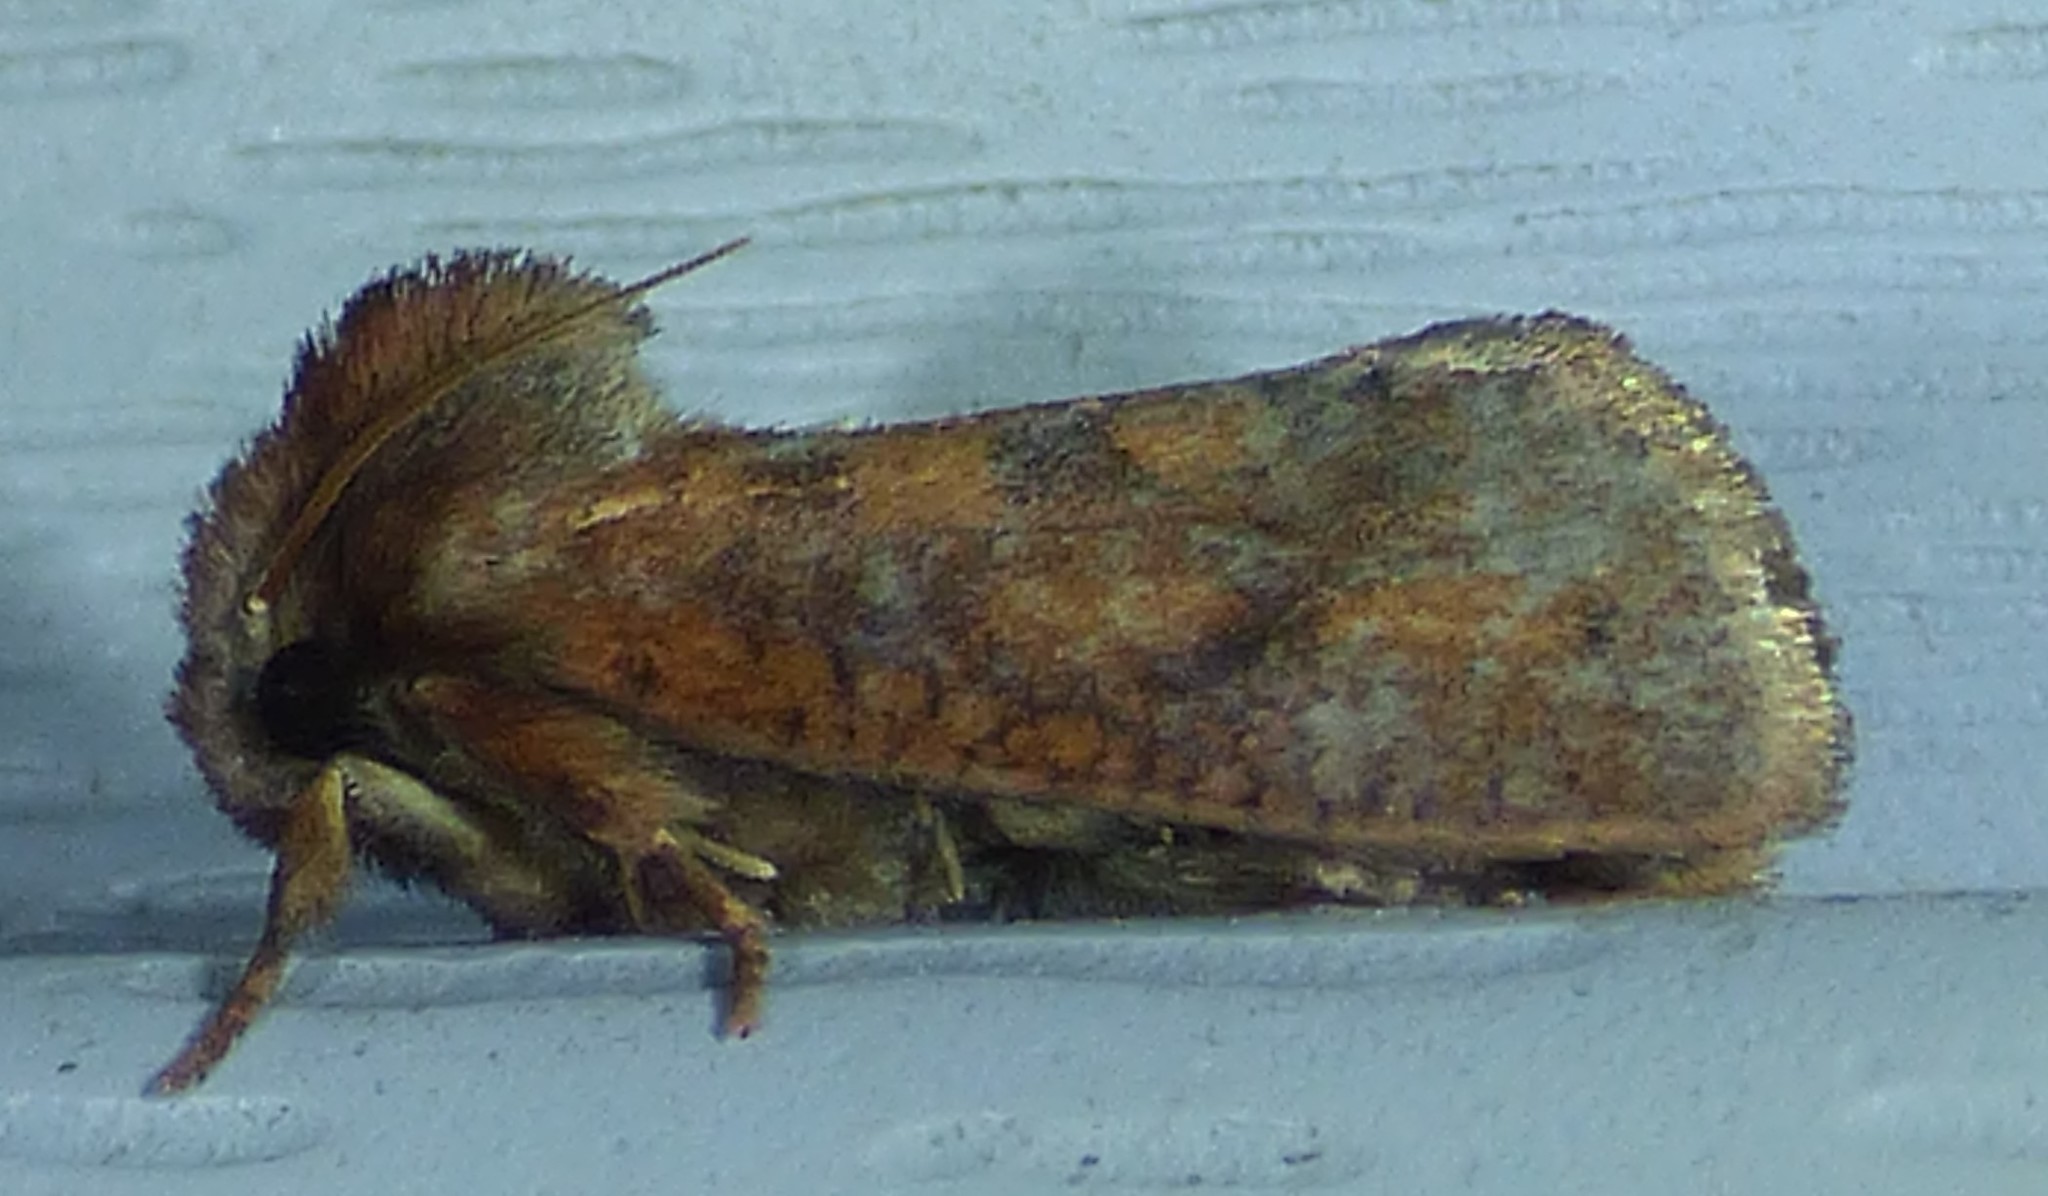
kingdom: Animalia
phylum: Arthropoda
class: Insecta
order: Lepidoptera
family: Tineidae
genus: Acrolophus
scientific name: Acrolophus plumifrontella
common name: Eastern grass tubeworm moth
